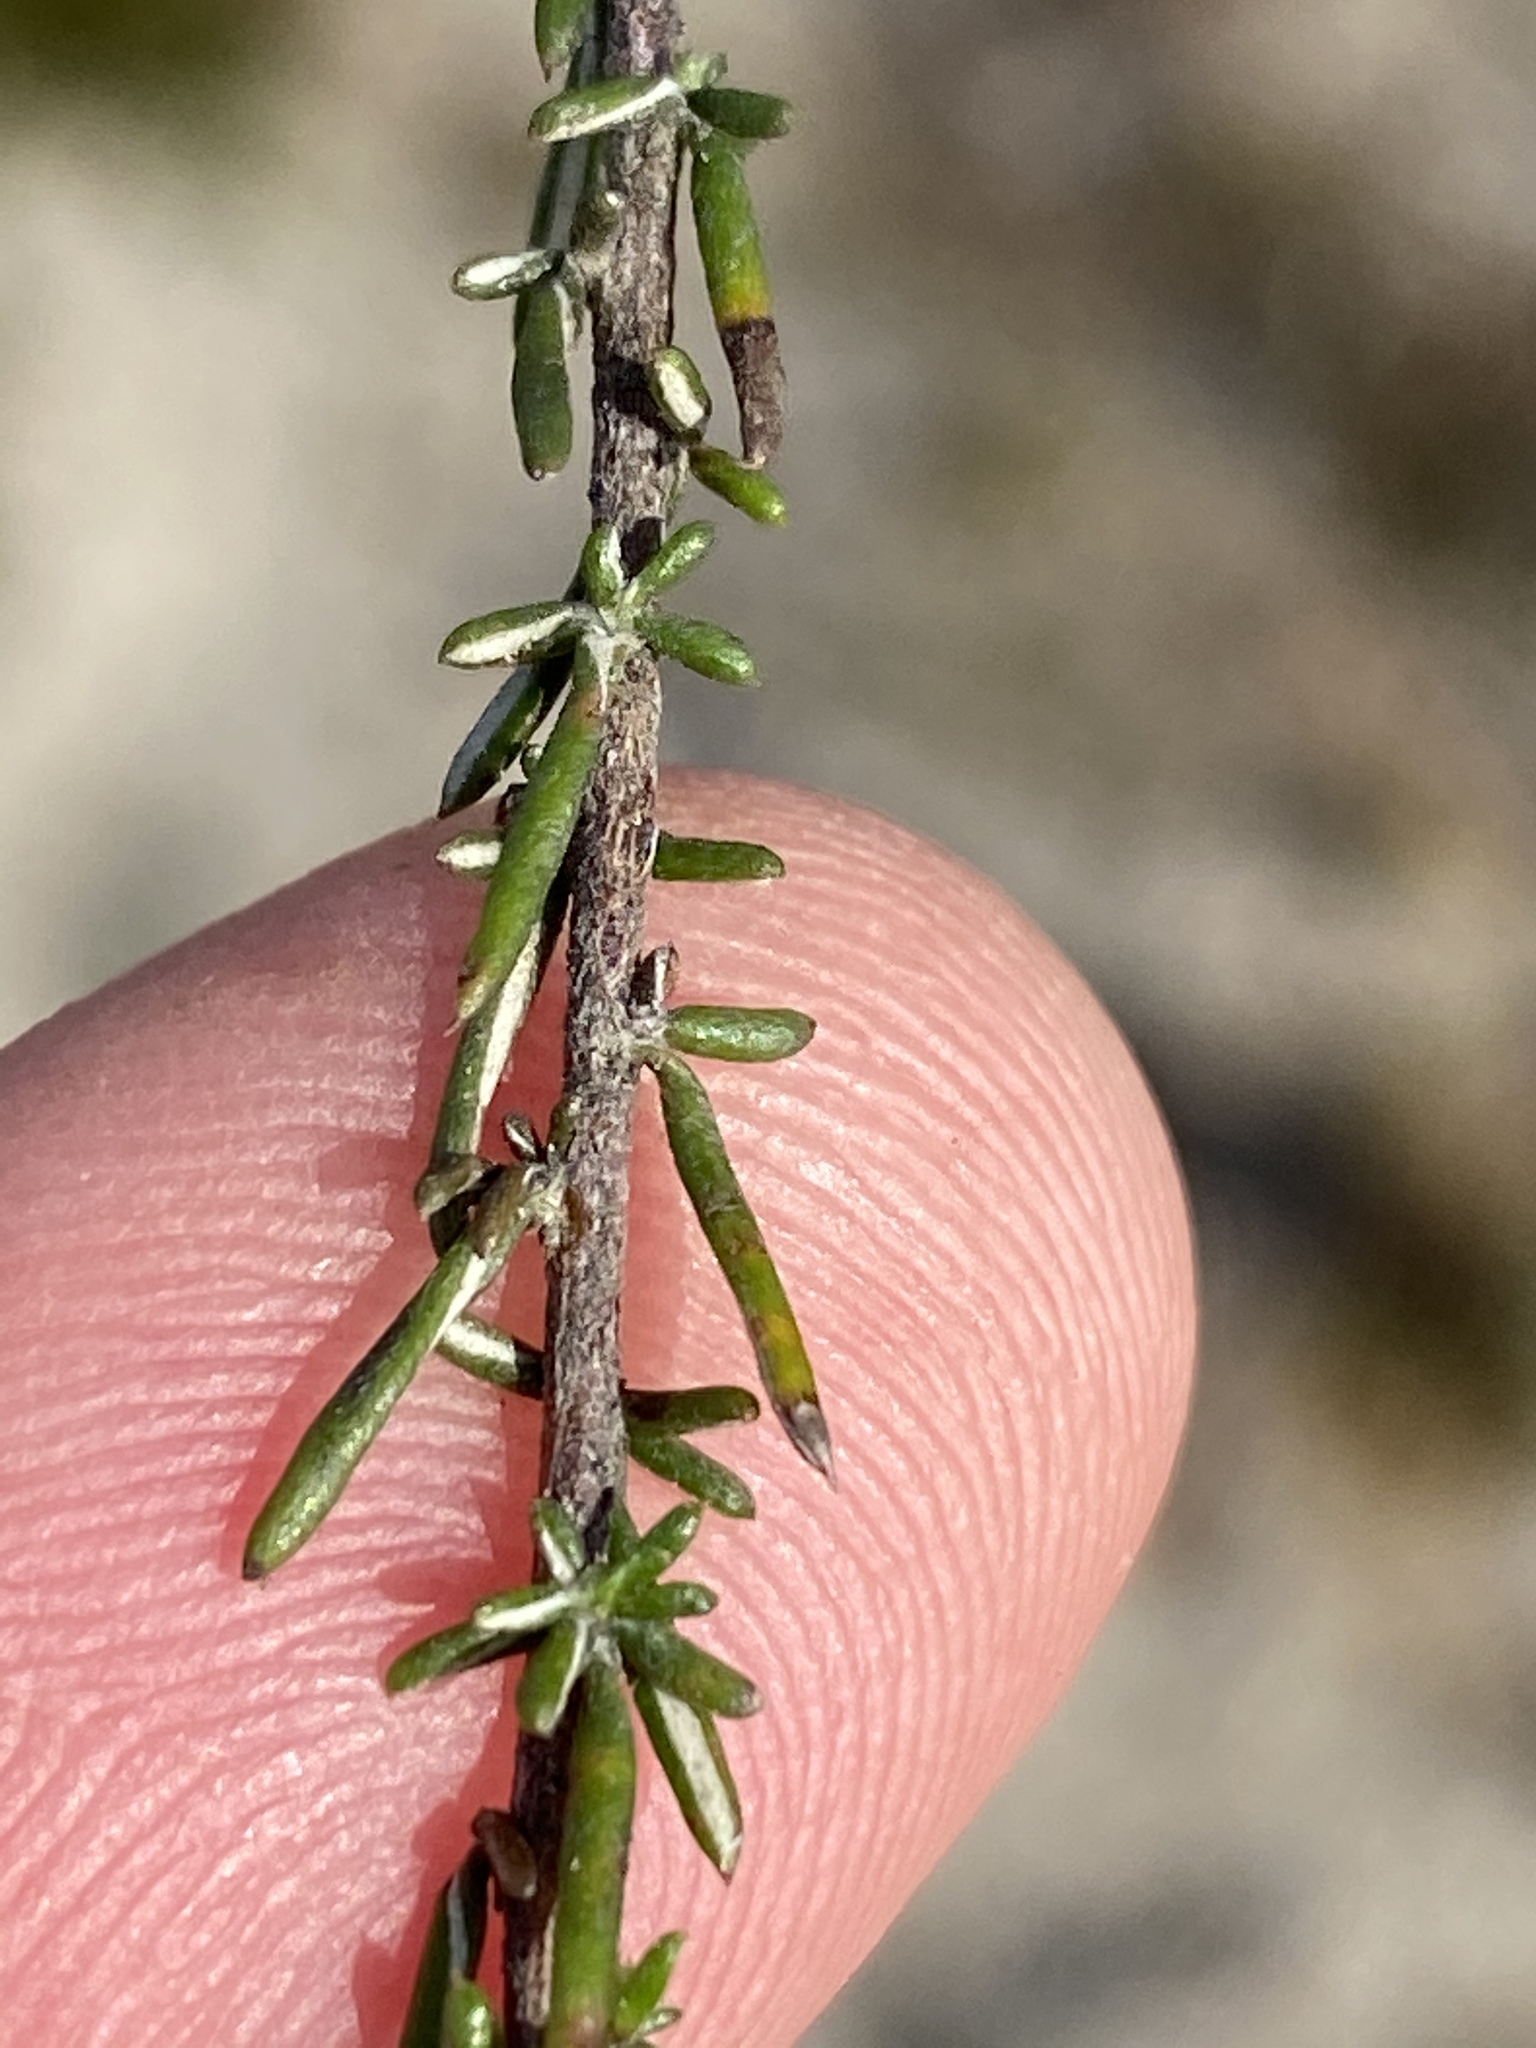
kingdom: Plantae
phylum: Tracheophyta
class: Magnoliopsida
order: Asterales
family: Asteraceae
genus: Metalasia
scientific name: Metalasia tenuifolia
